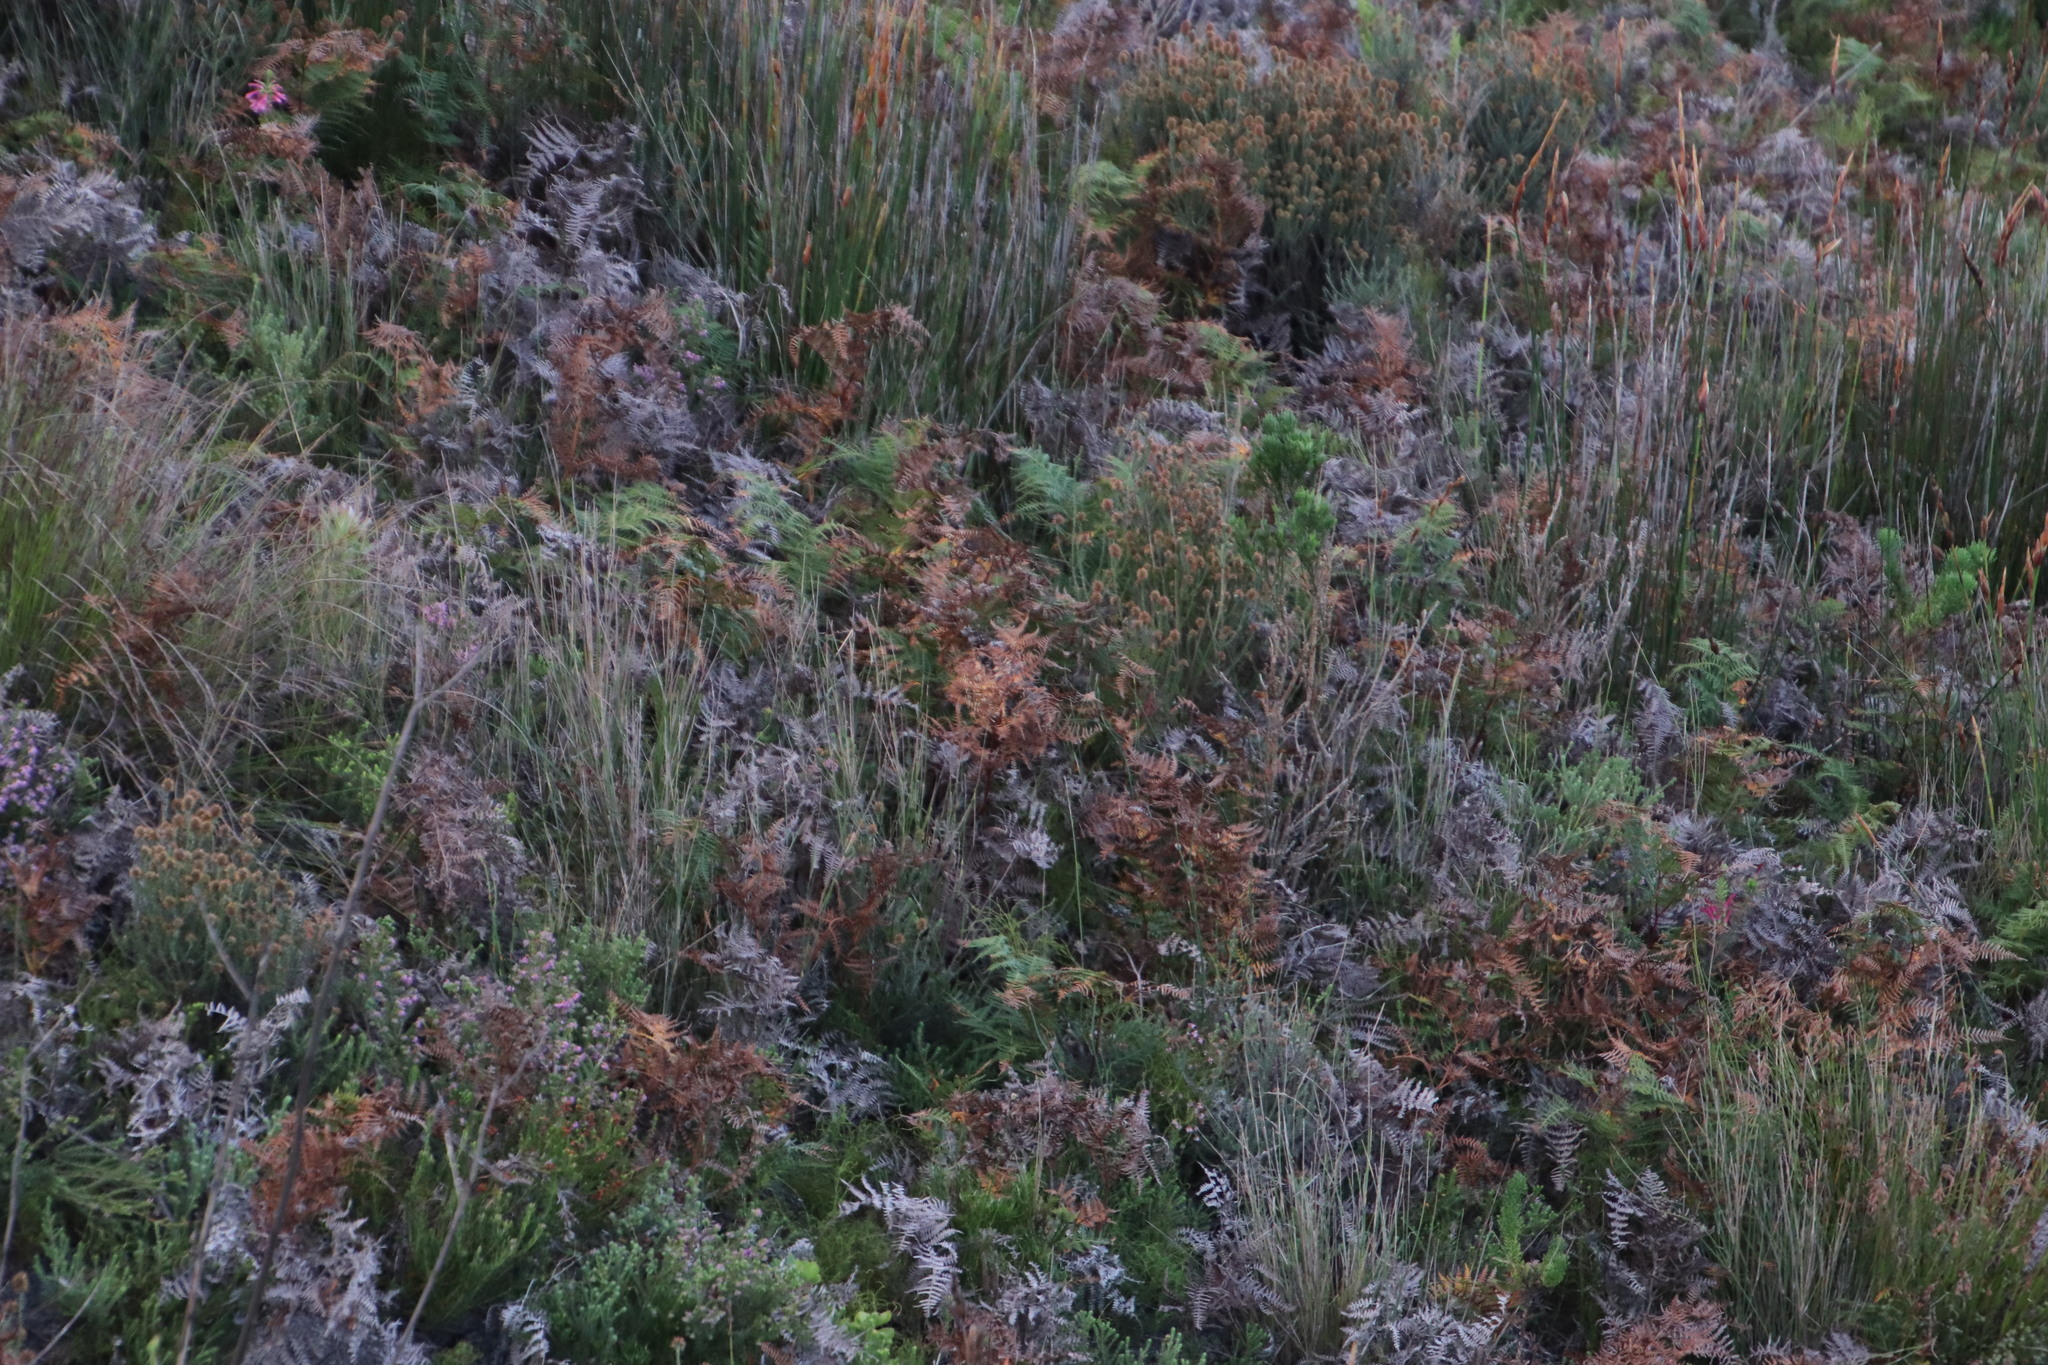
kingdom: Plantae
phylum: Tracheophyta
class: Polypodiopsida
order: Polypodiales
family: Dennstaedtiaceae
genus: Pteridium
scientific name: Pteridium aquilinum
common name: Bracken
